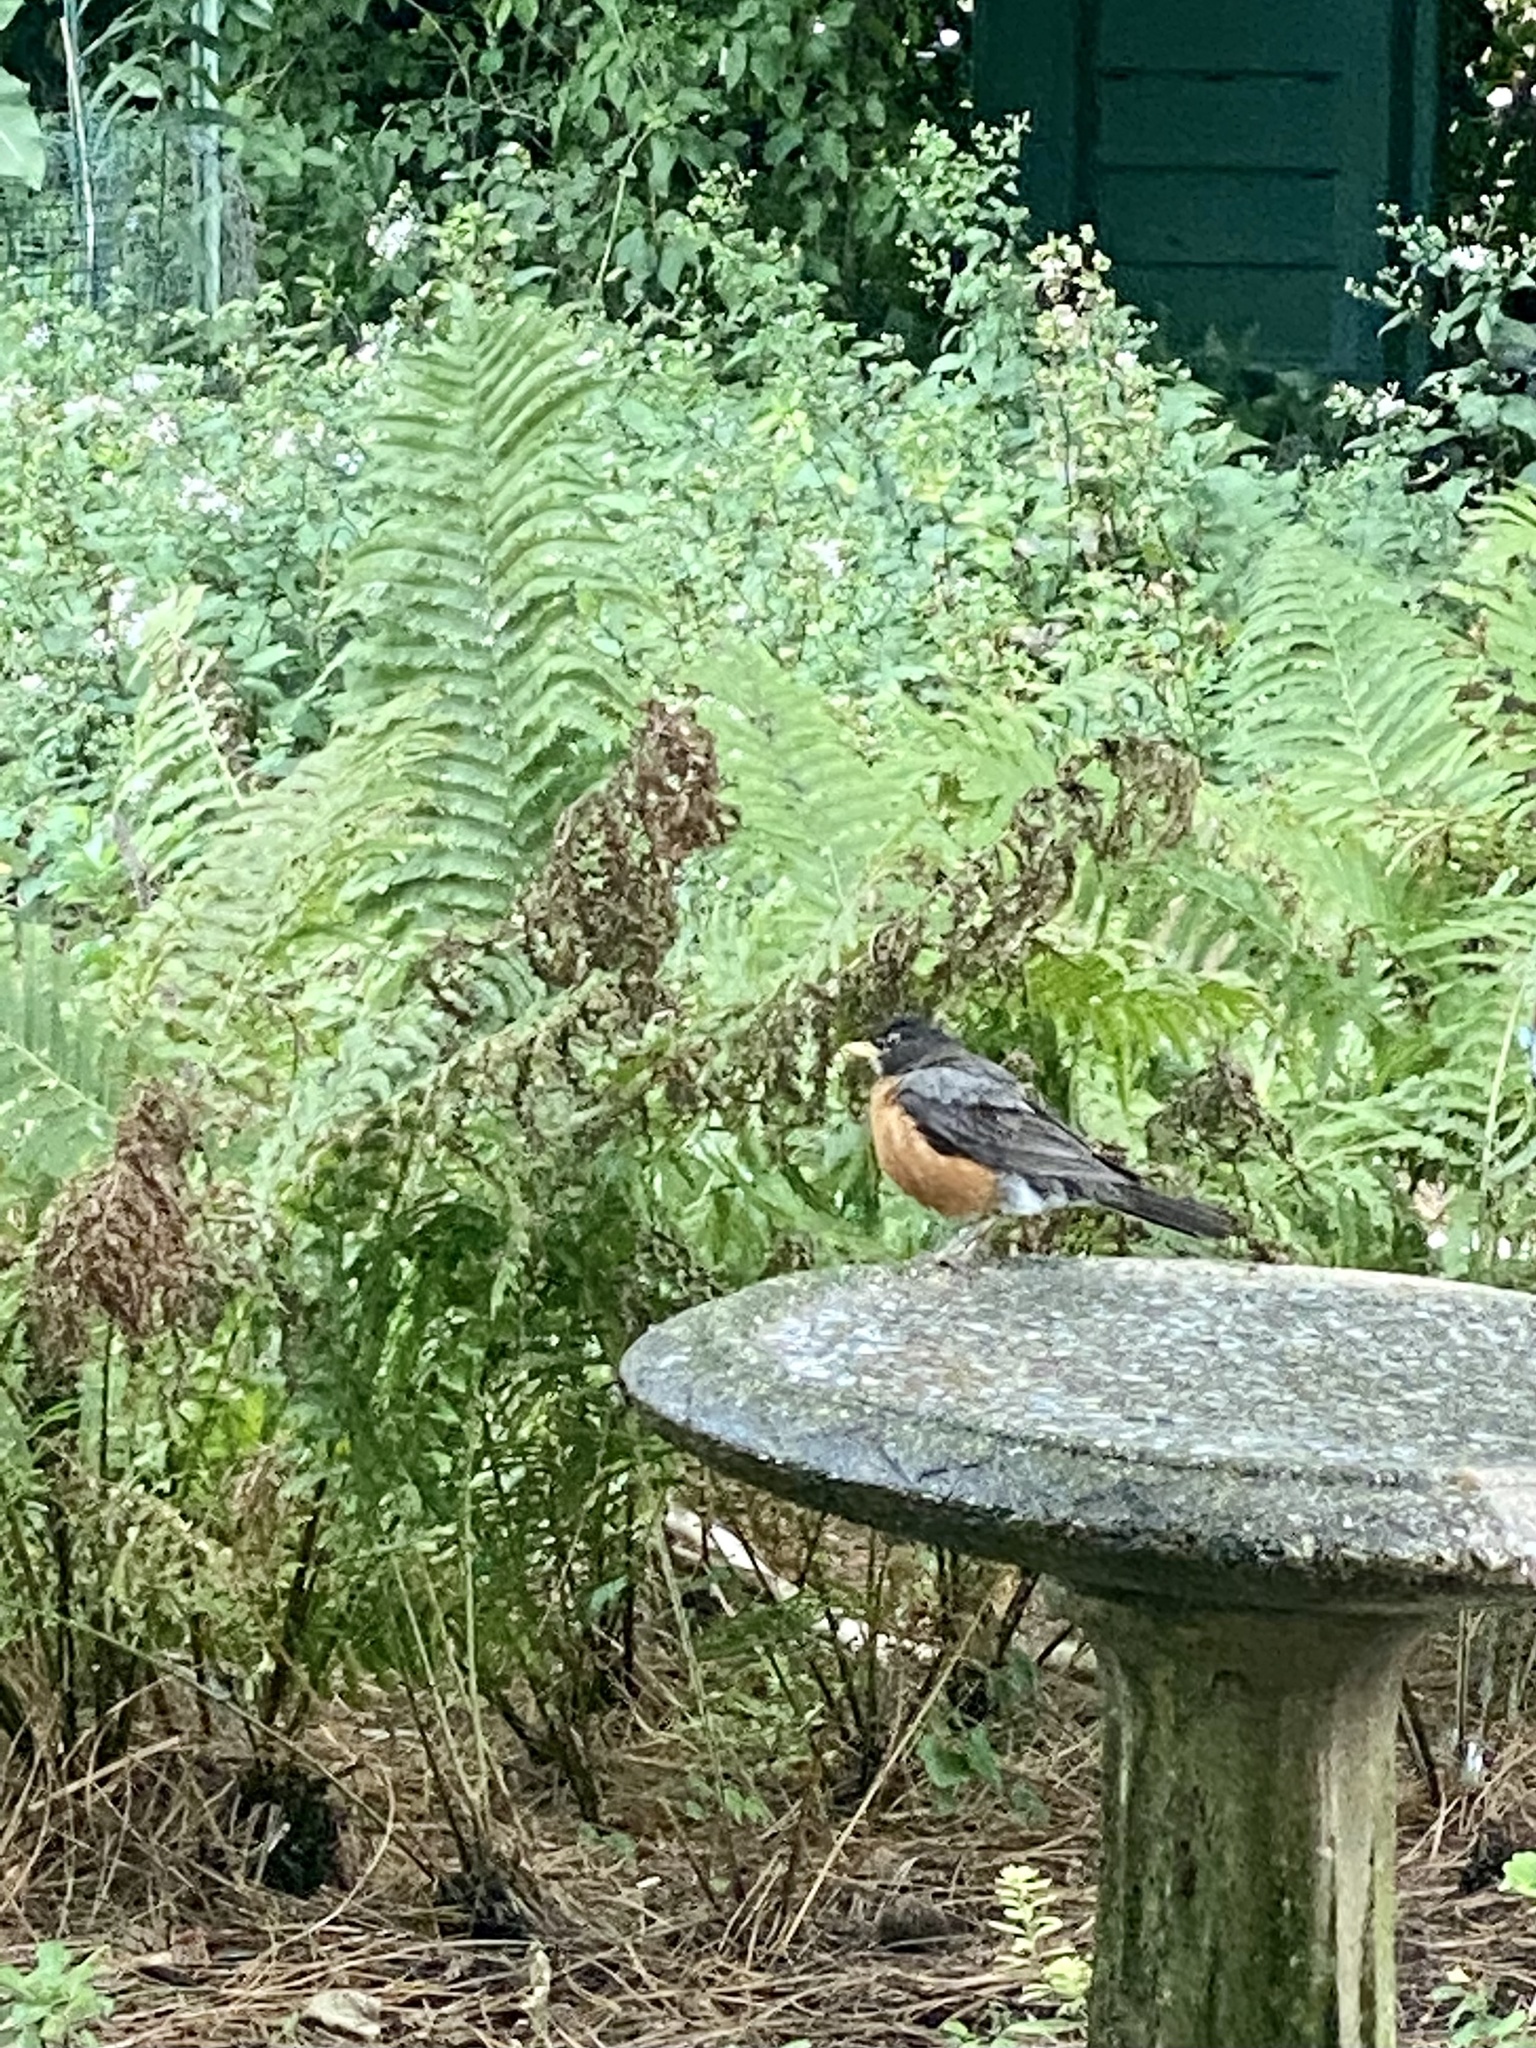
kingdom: Animalia
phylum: Chordata
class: Aves
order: Passeriformes
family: Turdidae
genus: Turdus
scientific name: Turdus migratorius
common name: American robin
